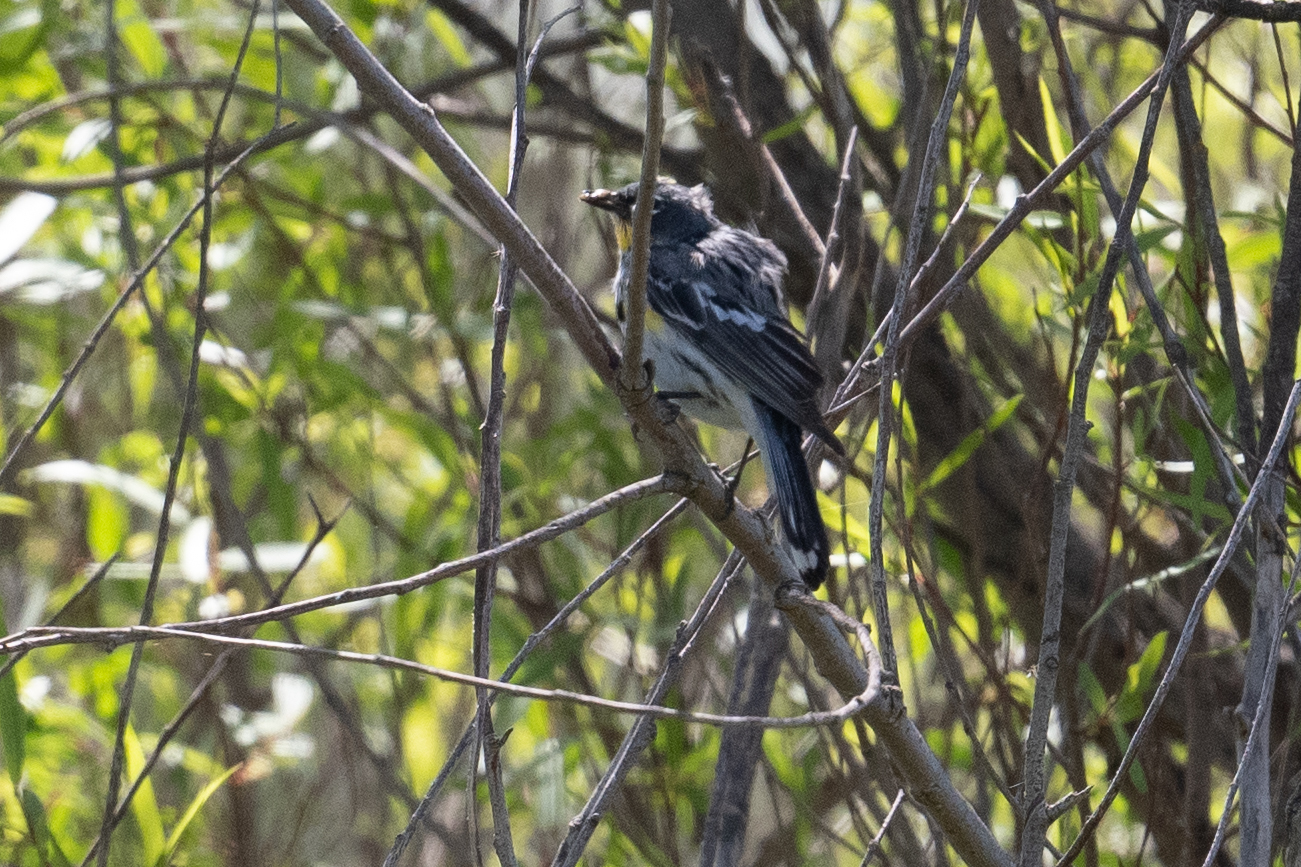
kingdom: Animalia
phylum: Chordata
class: Aves
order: Passeriformes
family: Parulidae
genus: Setophaga
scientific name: Setophaga coronata
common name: Myrtle warbler
